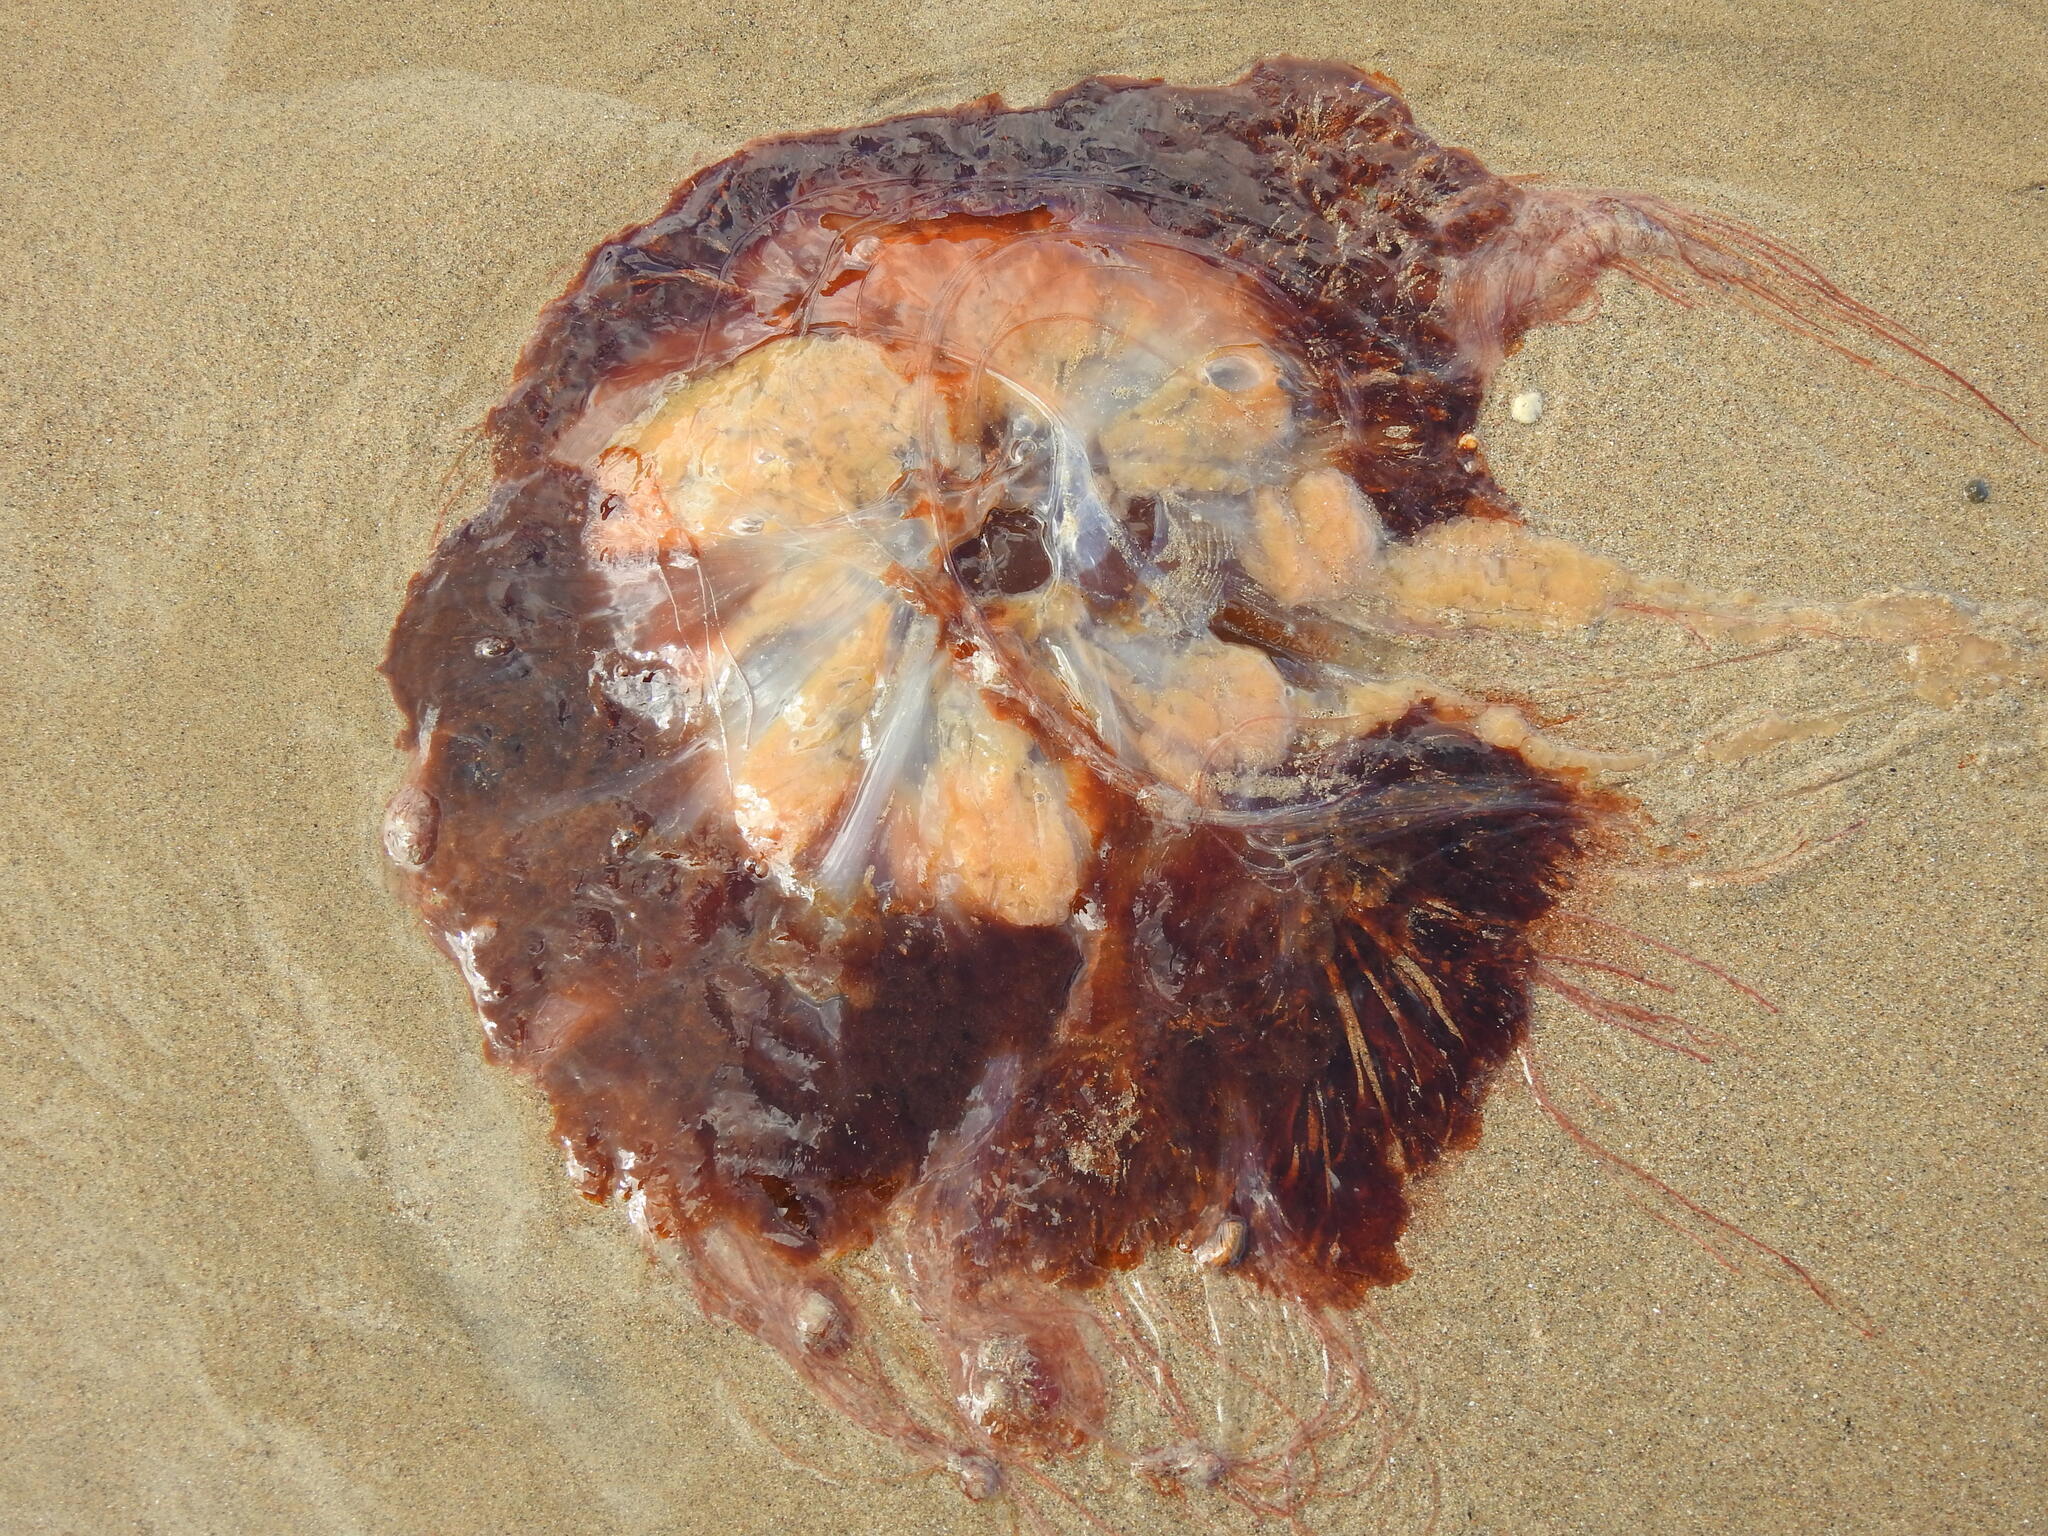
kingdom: Animalia
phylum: Cnidaria
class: Scyphozoa
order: Semaeostomeae
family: Cyaneidae
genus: Cyanea
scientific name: Cyanea capillata
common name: Lion's mane jellyfish
